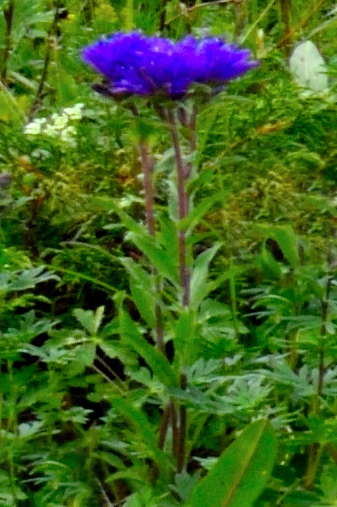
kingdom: Plantae
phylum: Tracheophyta
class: Magnoliopsida
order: Asterales
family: Campanulaceae
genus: Campanula
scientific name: Campanula glomerata
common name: Clustered bellflower
